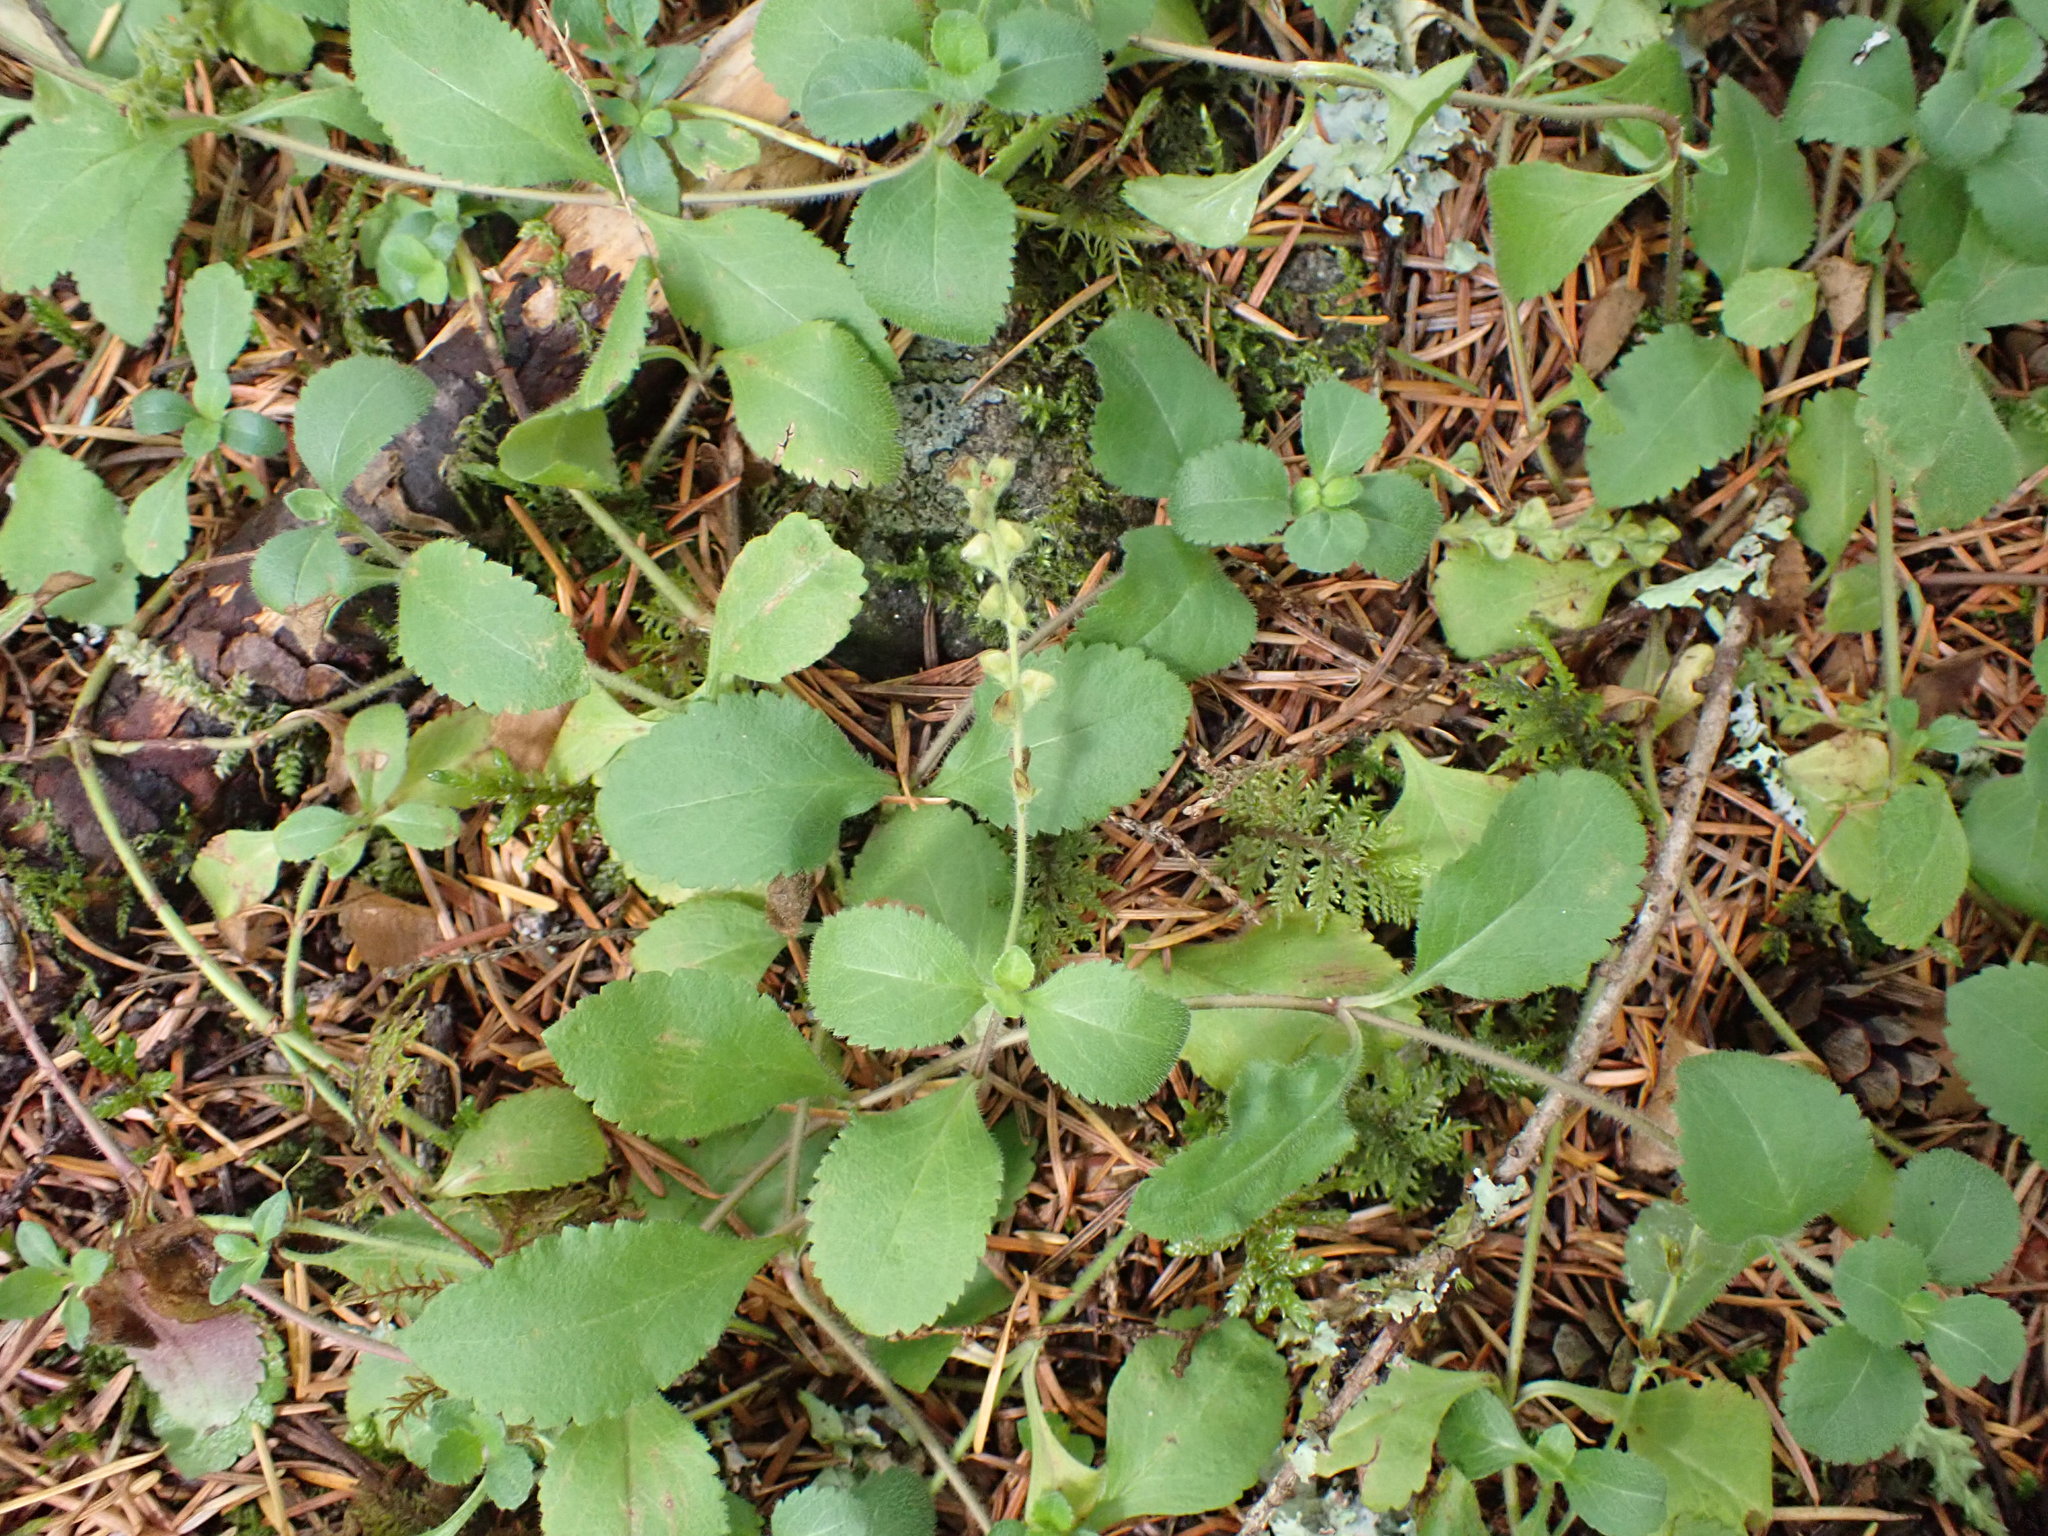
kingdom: Plantae
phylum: Tracheophyta
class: Magnoliopsida
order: Lamiales
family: Plantaginaceae
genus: Veronica
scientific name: Veronica officinalis
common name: Common speedwell
